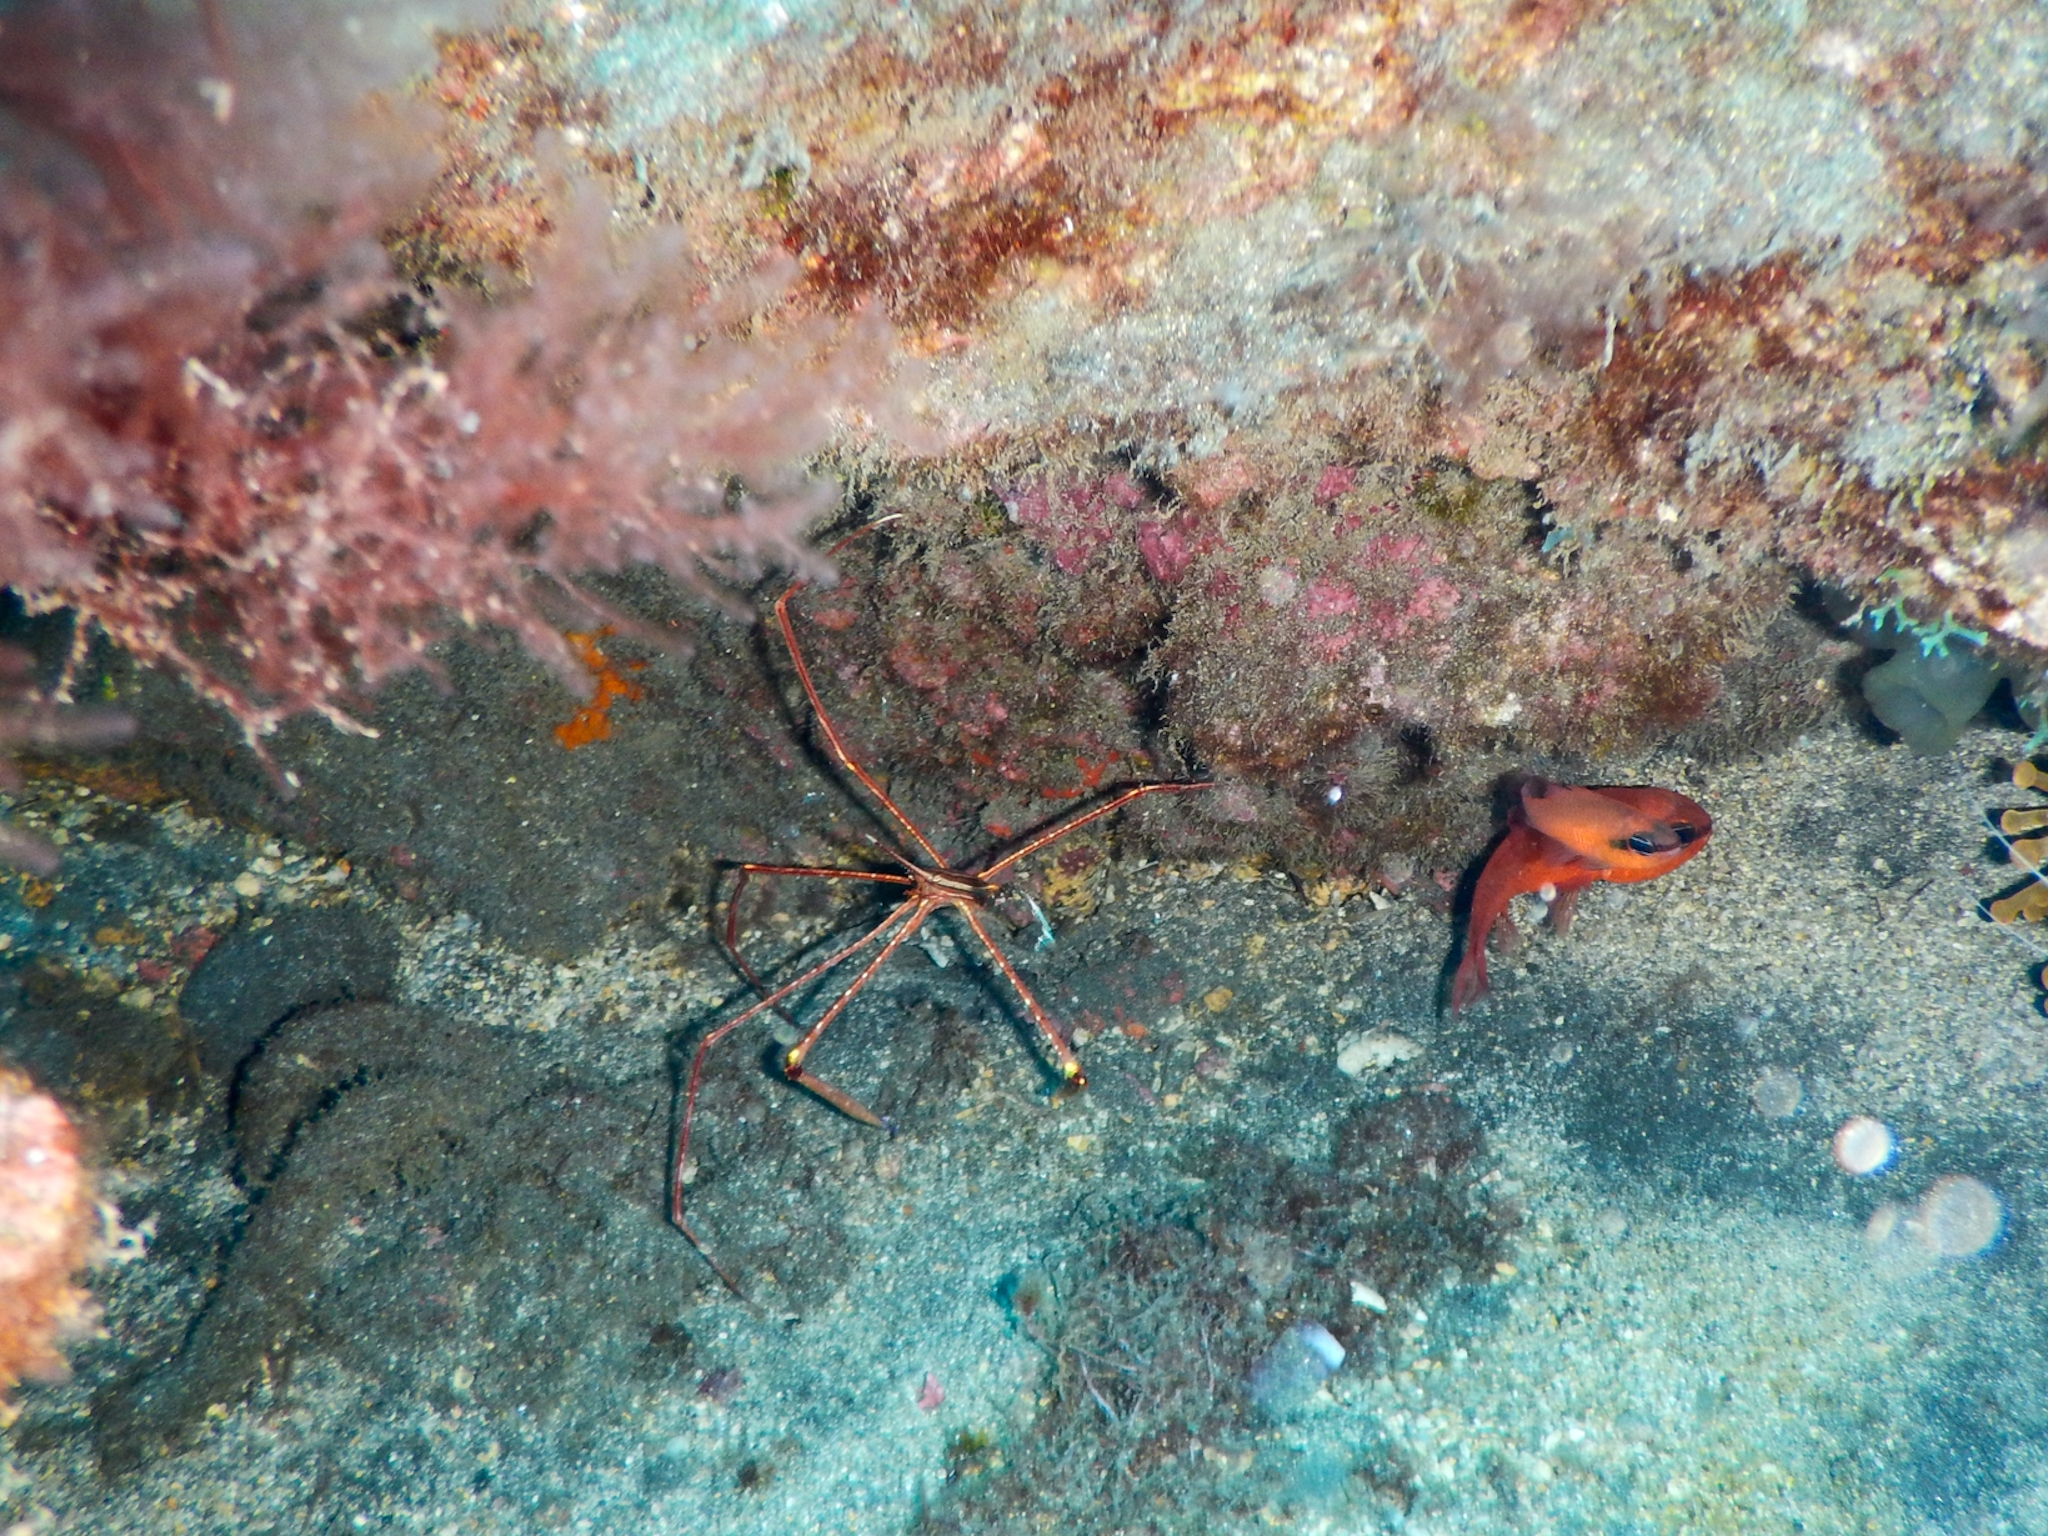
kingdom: Animalia
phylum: Arthropoda
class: Malacostraca
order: Decapoda
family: Inachoididae
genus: Stenorhynchus
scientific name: Stenorhynchus lanceolatus
